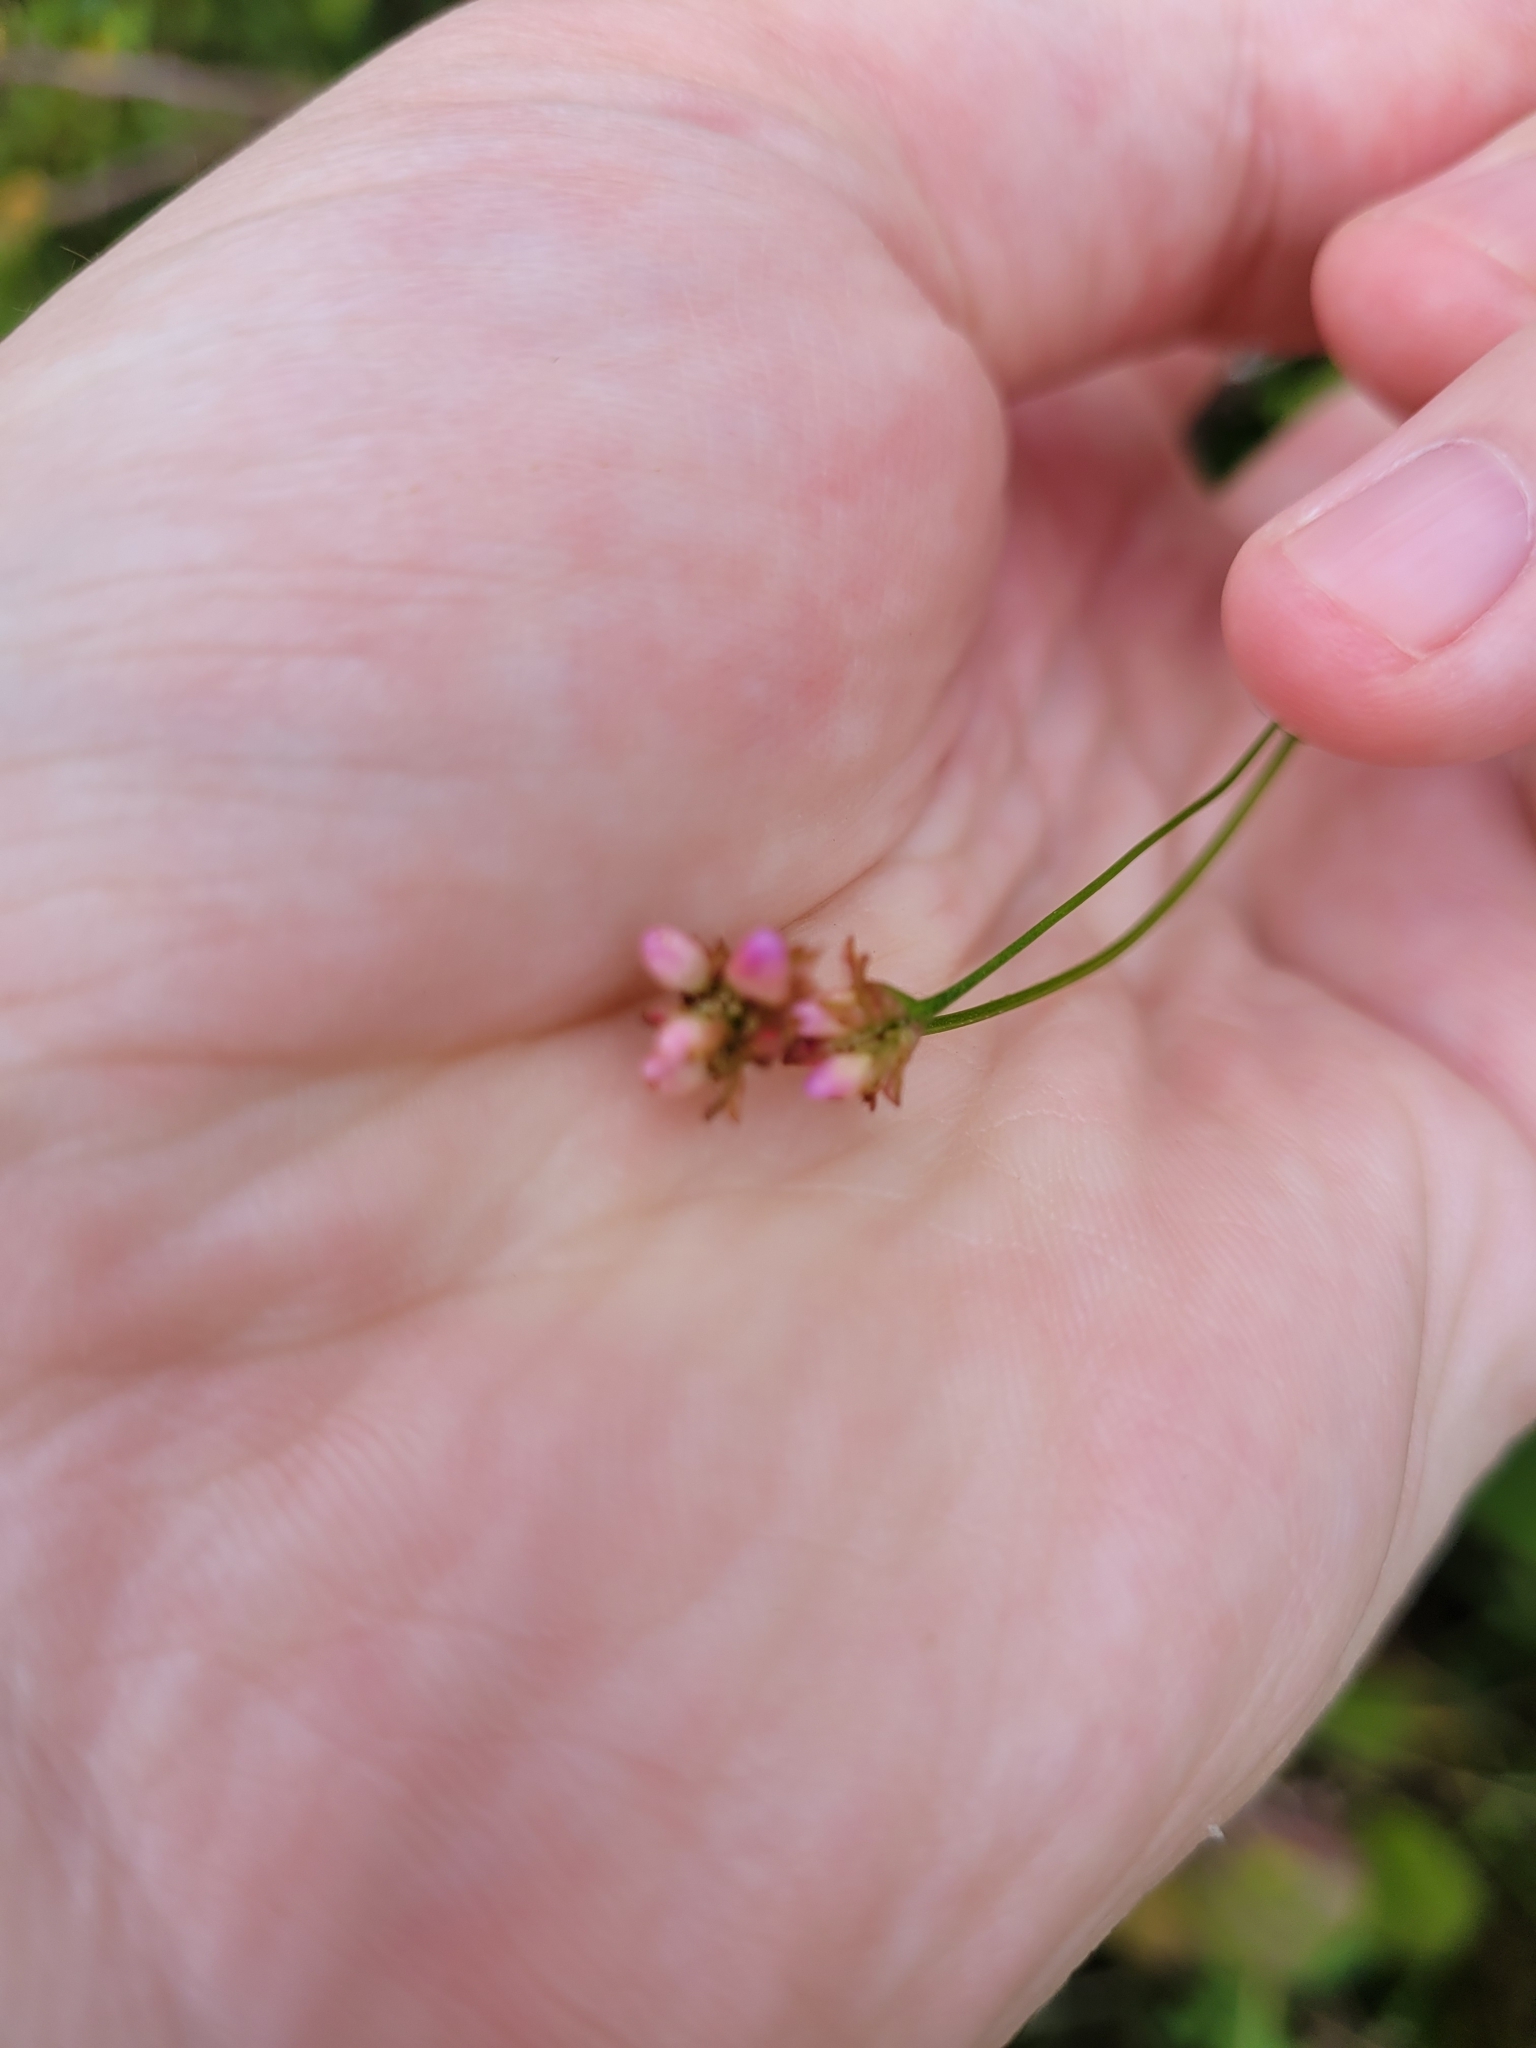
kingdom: Plantae
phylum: Tracheophyta
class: Magnoliopsida
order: Caryophyllales
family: Polygonaceae
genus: Persicaria
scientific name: Persicaria sagittata
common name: American tearthumb
